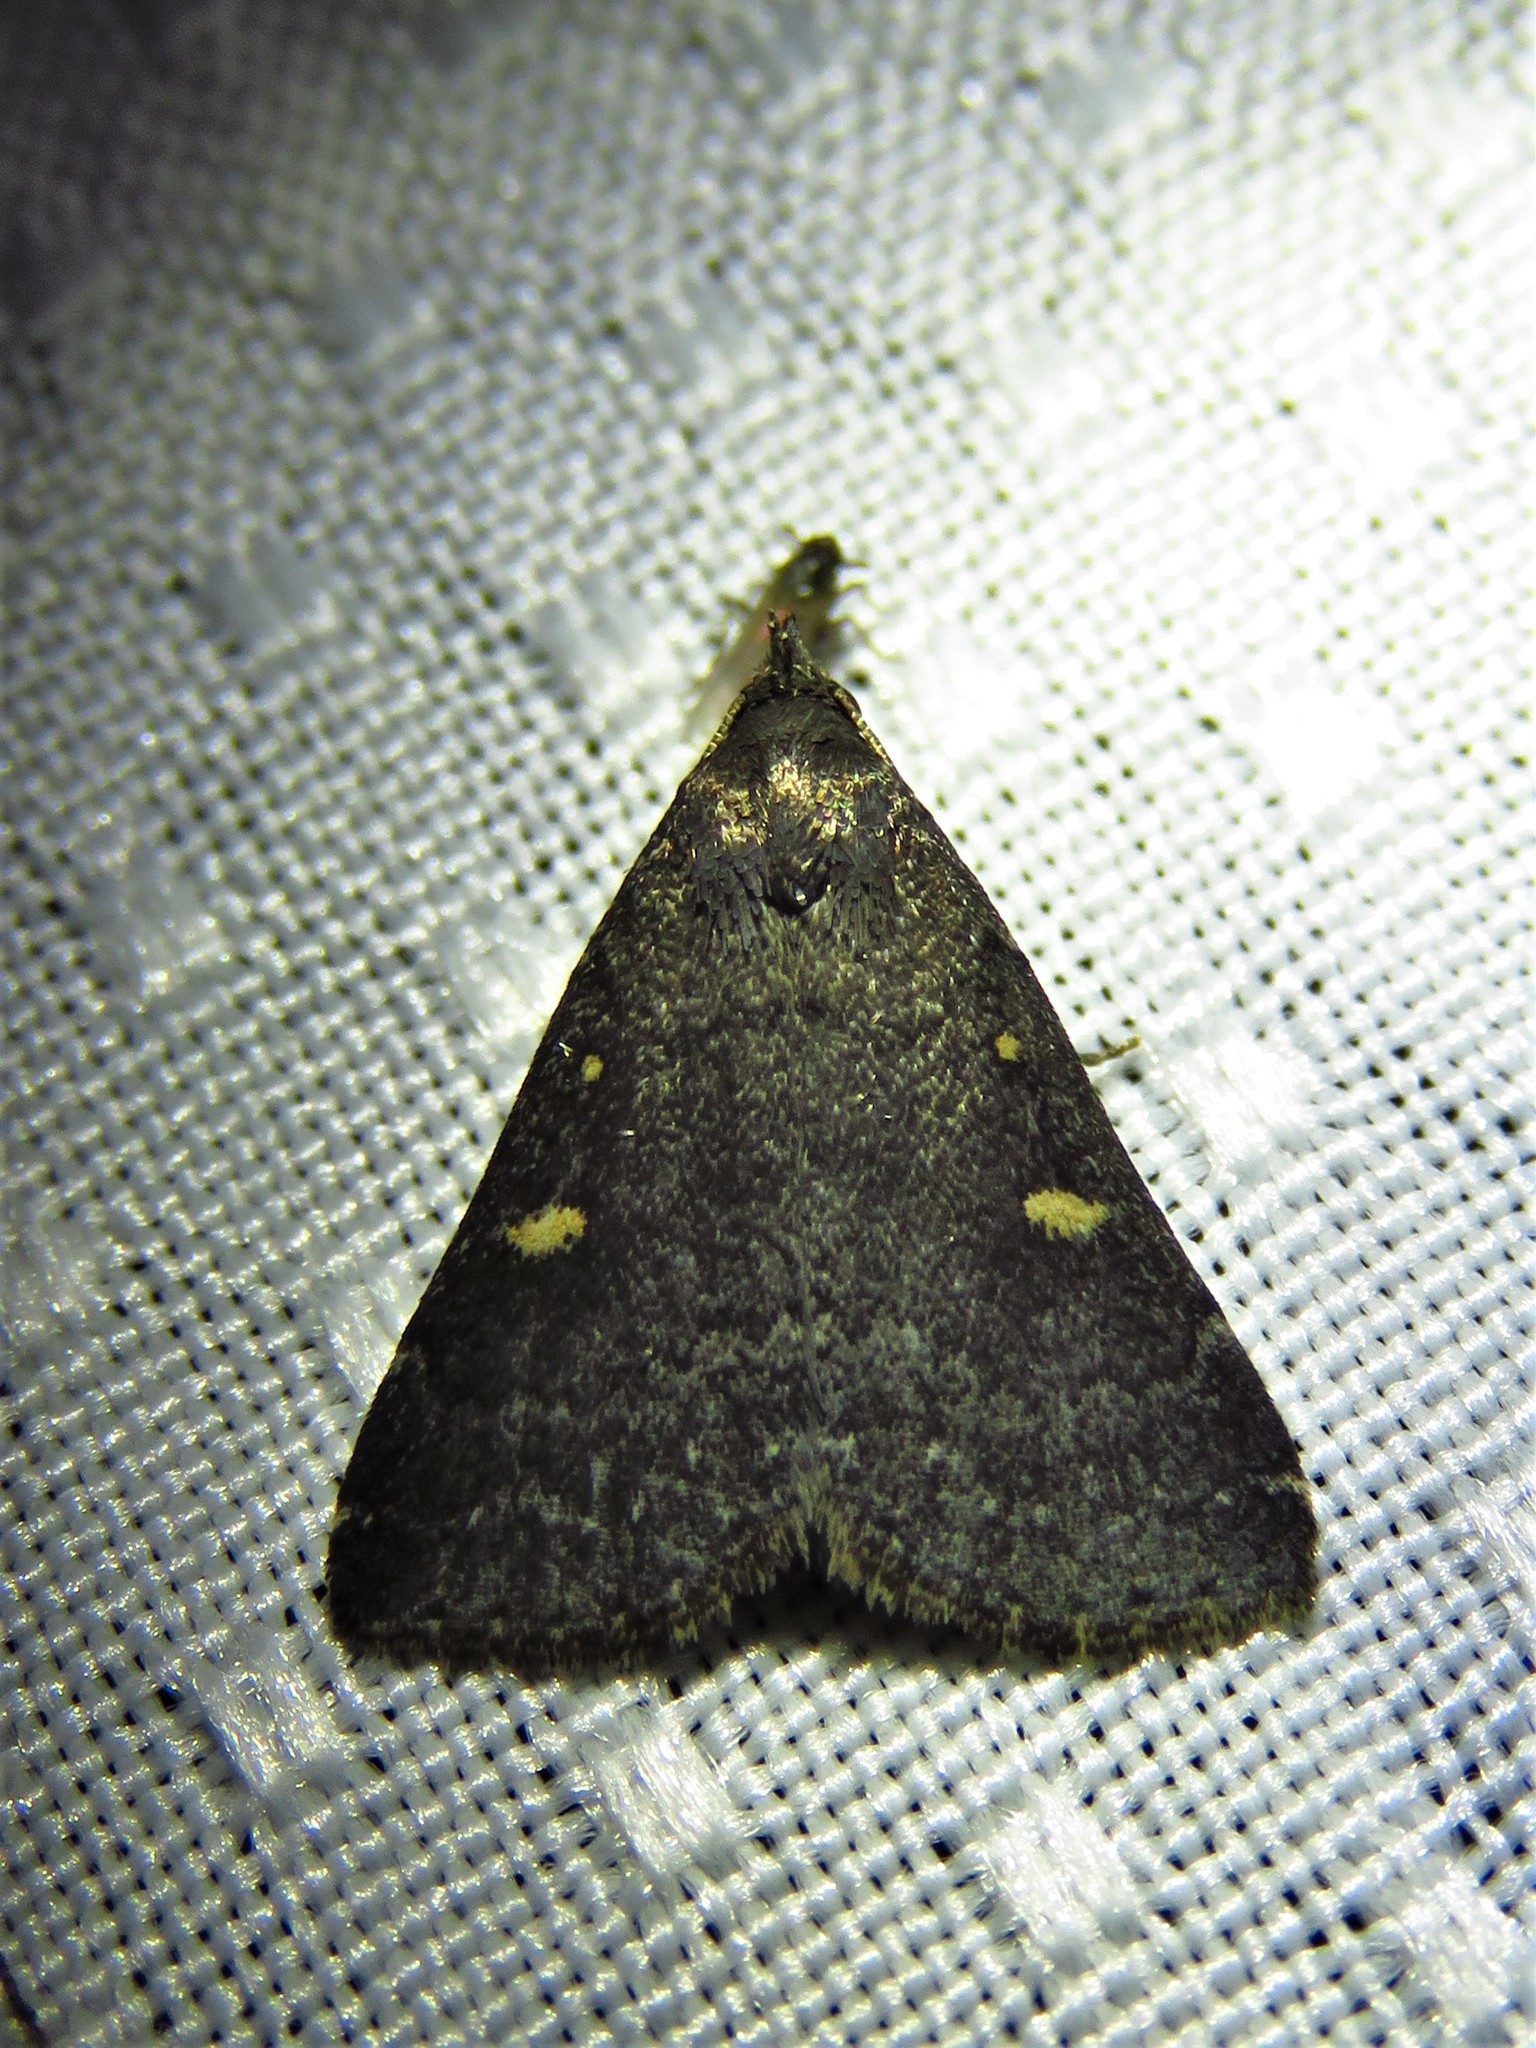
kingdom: Animalia
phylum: Arthropoda
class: Insecta
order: Lepidoptera
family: Erebidae
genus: Tetanolita
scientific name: Tetanolita mynesalis
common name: Smoky tetanolita moth
